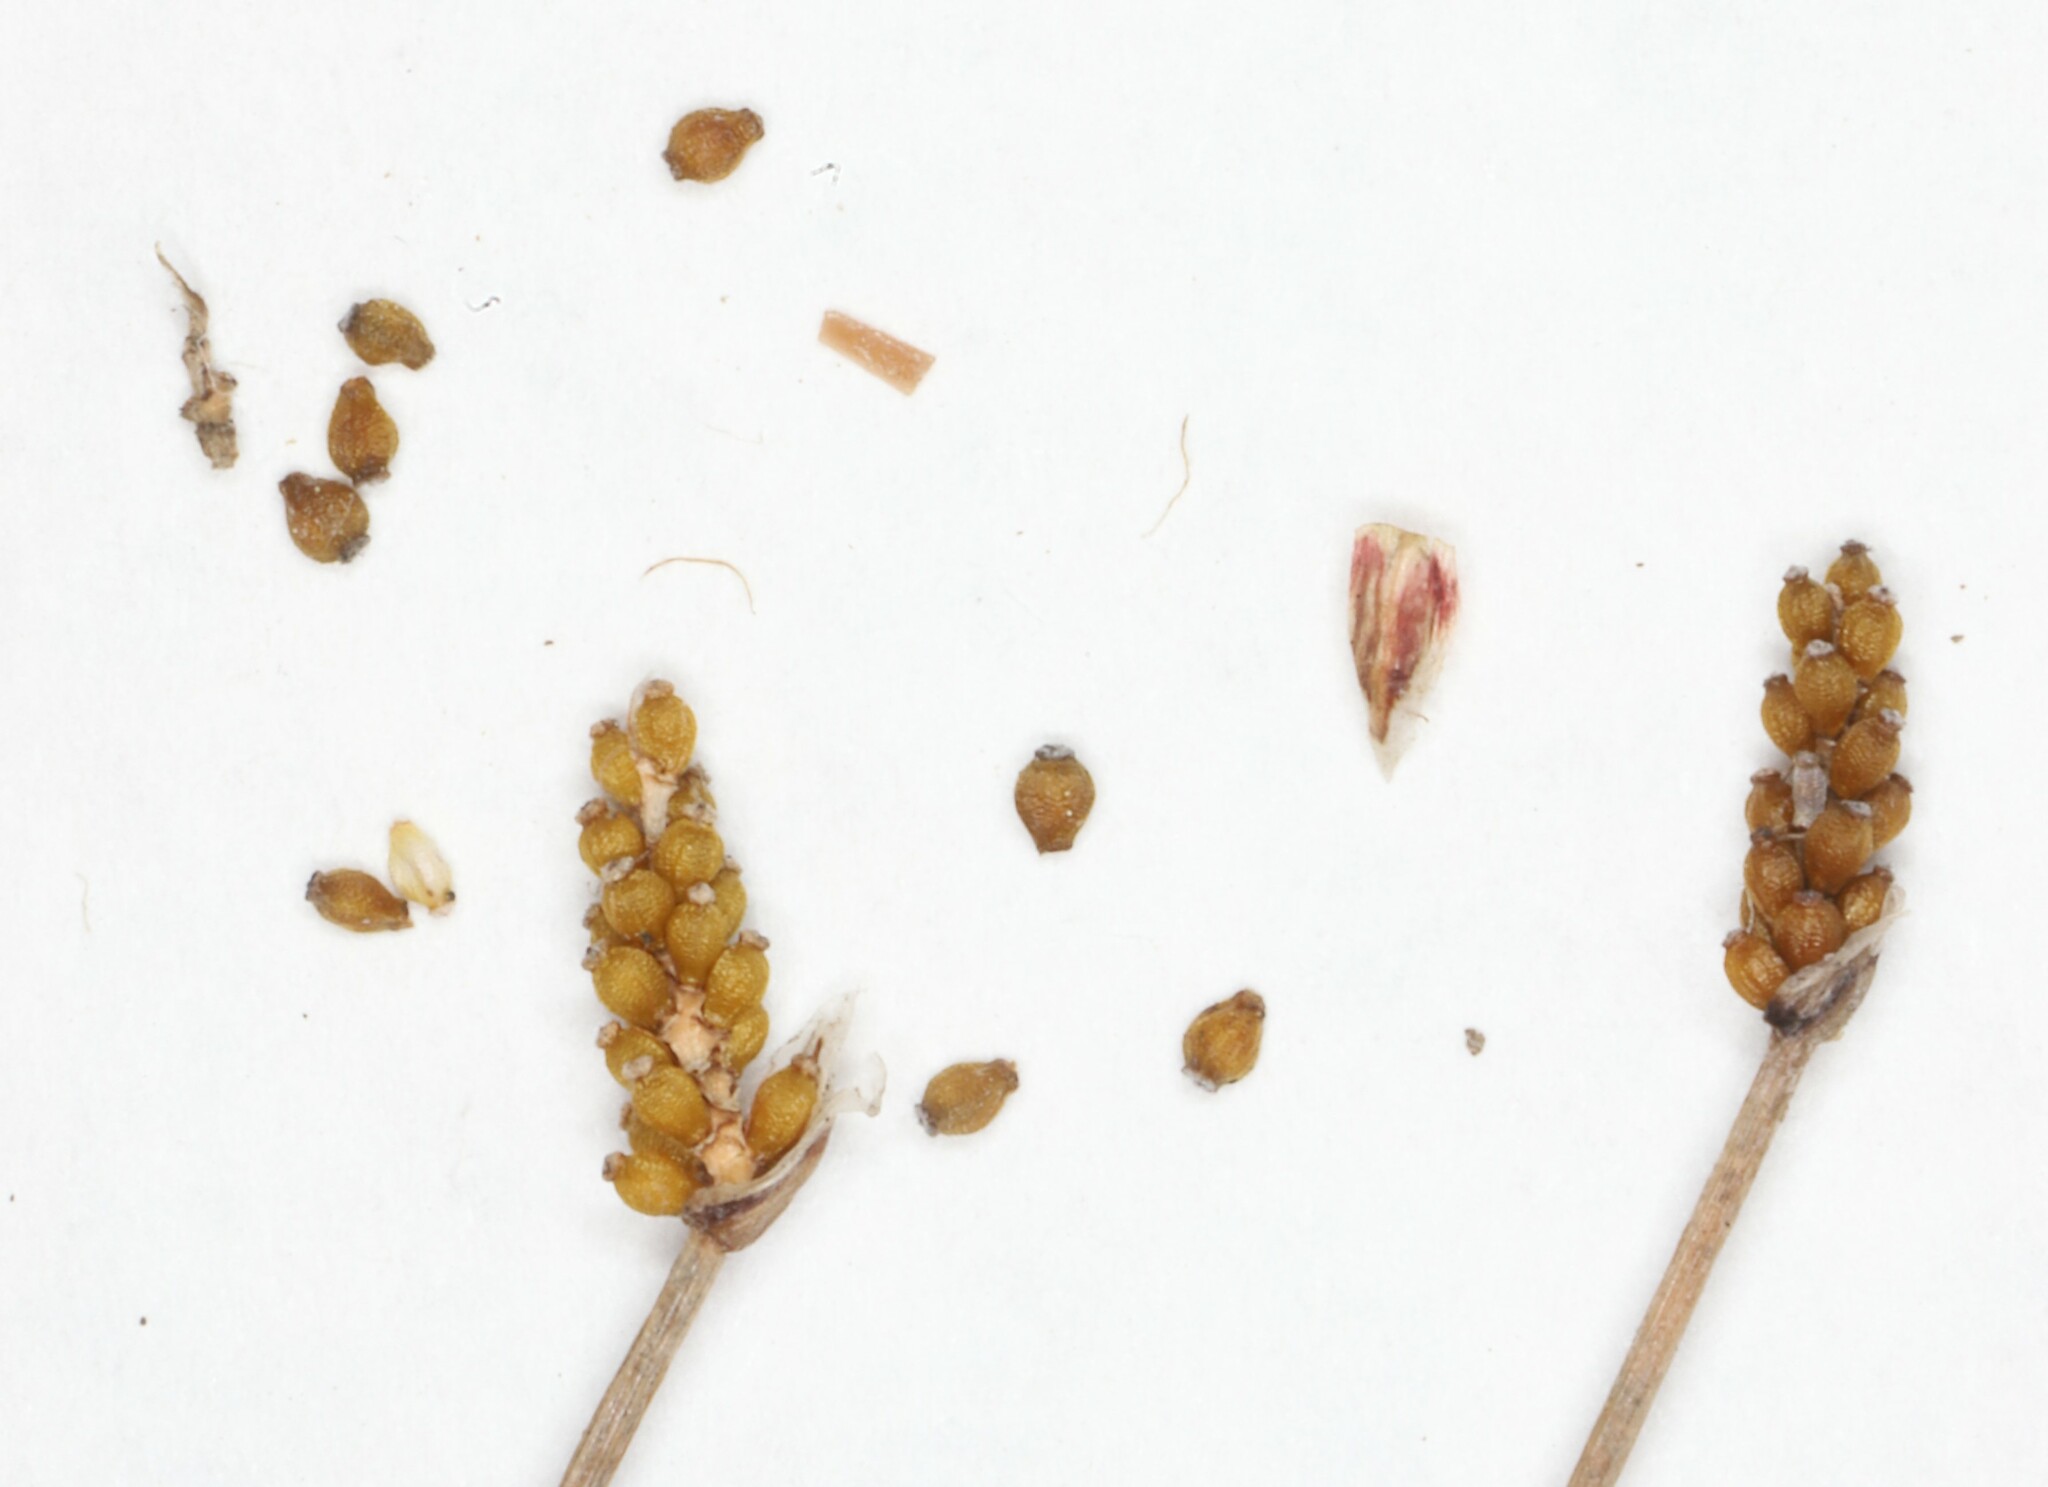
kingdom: Plantae
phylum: Tracheophyta
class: Liliopsida
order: Poales
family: Cyperaceae
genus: Eleocharis
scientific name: Eleocharis elliptica
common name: Capitate spikerush
